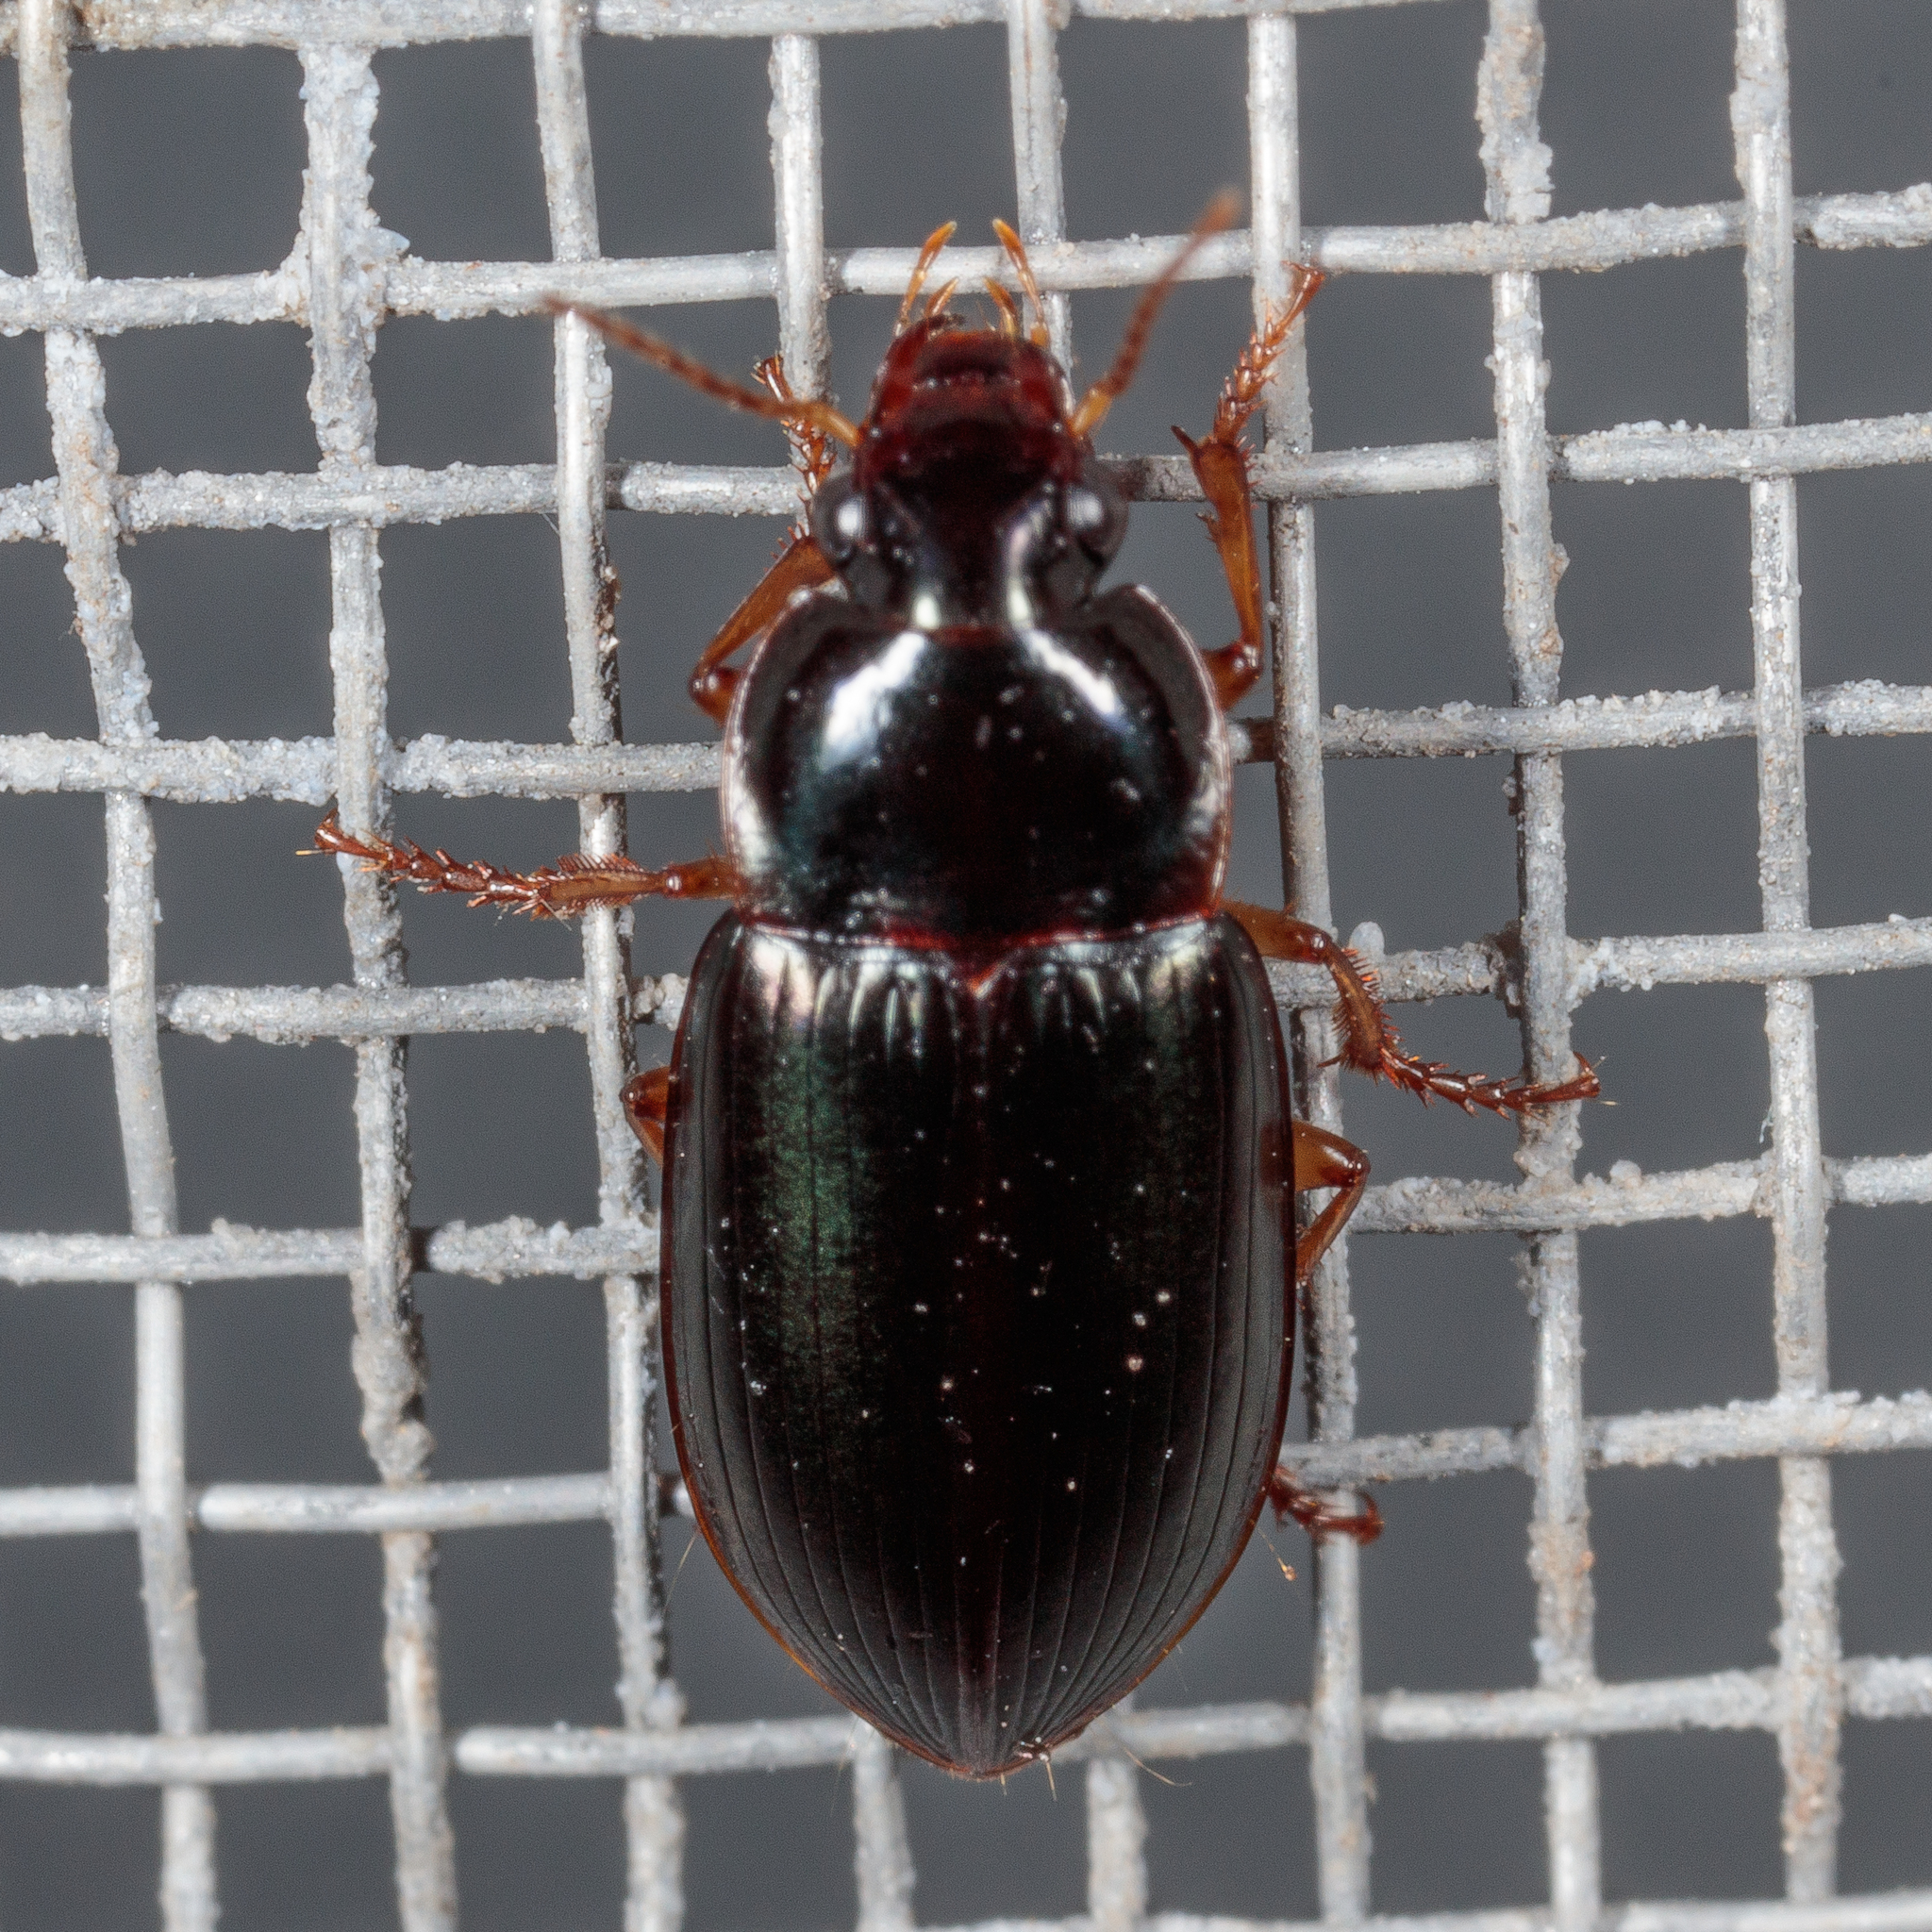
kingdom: Animalia
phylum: Arthropoda
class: Insecta
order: Coleoptera
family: Carabidae
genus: Notiobia
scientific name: Notiobia sayi
